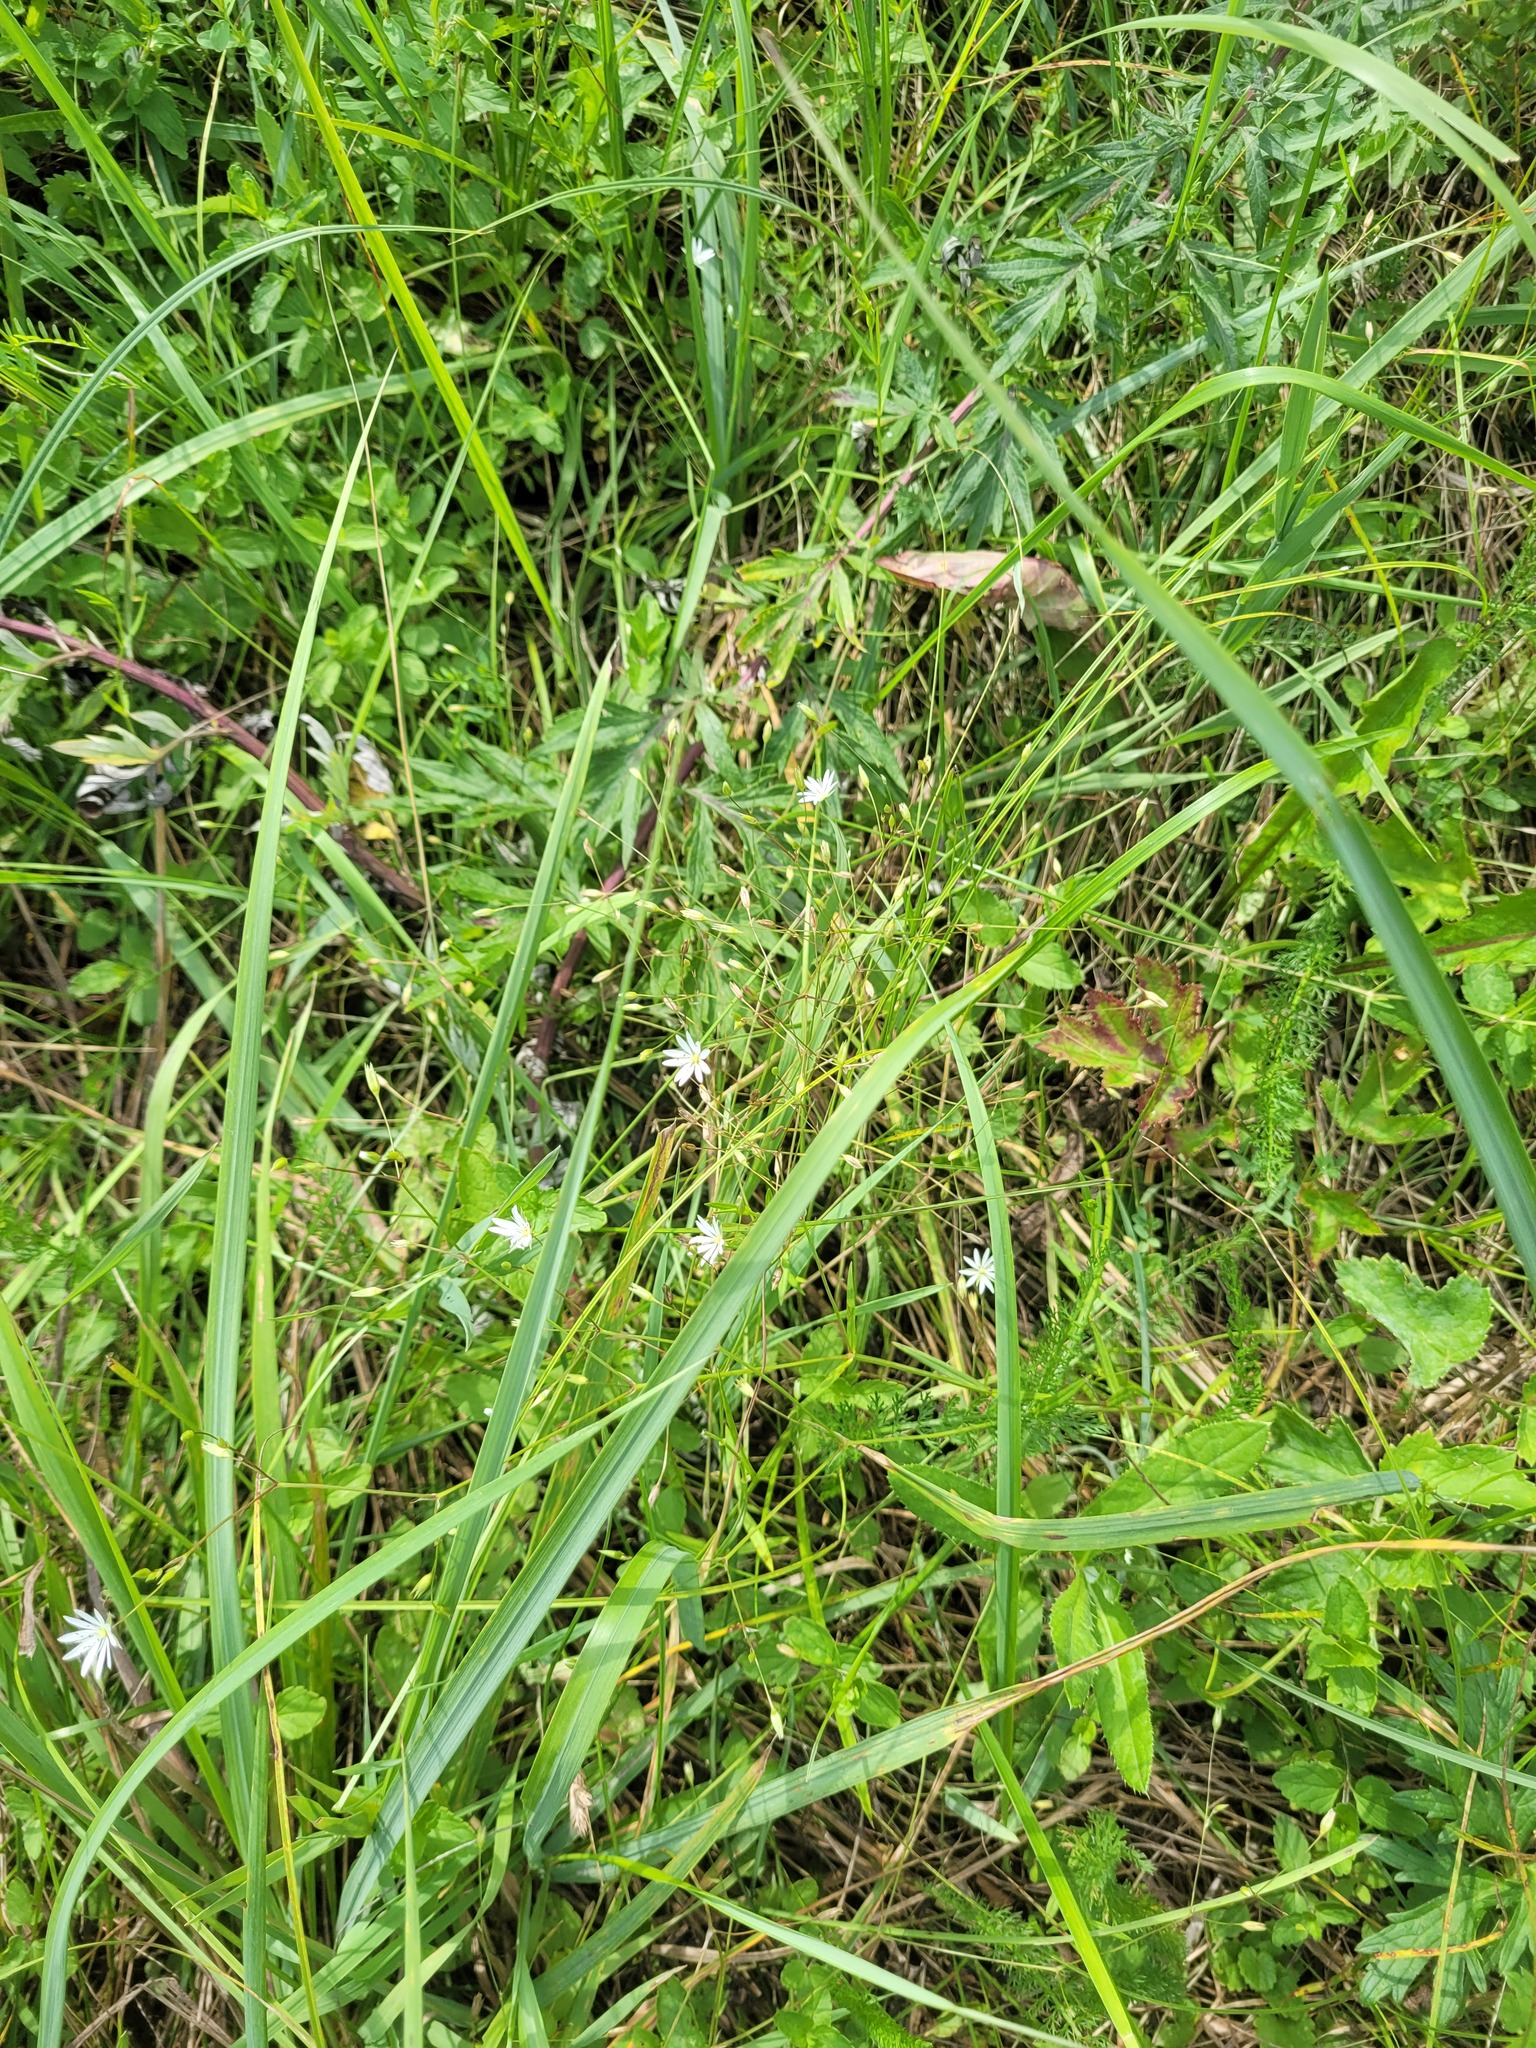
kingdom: Plantae
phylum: Tracheophyta
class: Magnoliopsida
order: Caryophyllales
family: Caryophyllaceae
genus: Stellaria
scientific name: Stellaria graminea
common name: Grass-like starwort
